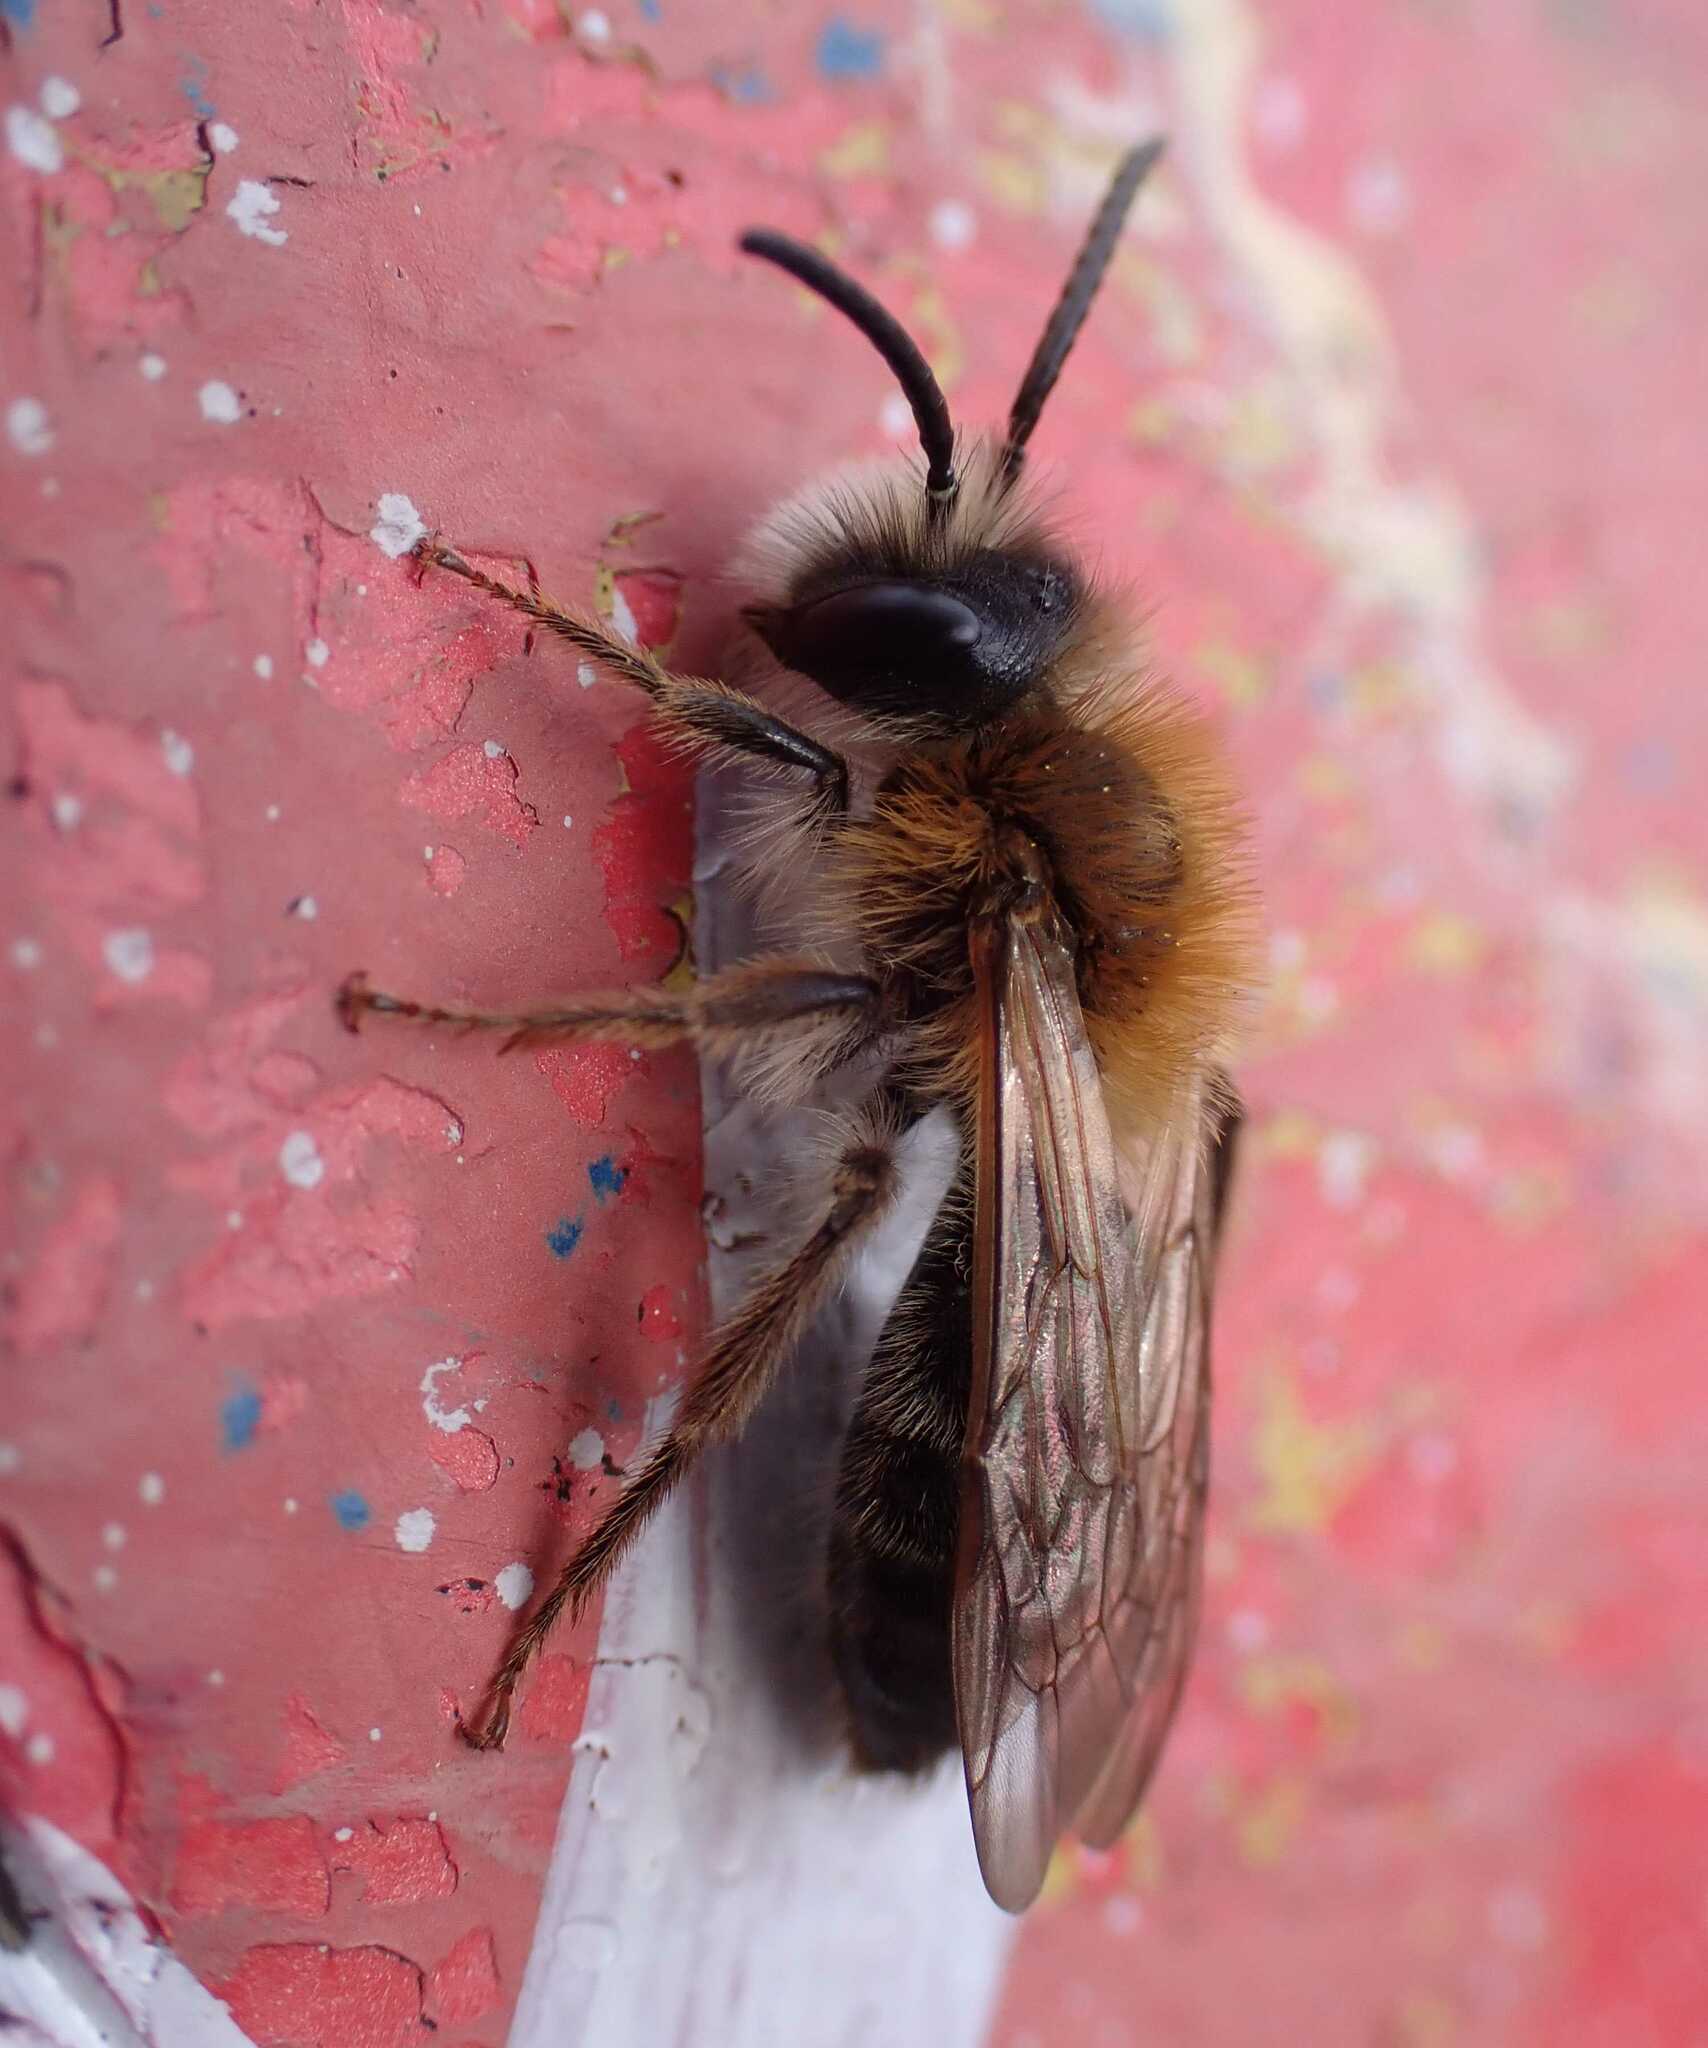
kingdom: Animalia
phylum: Arthropoda
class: Insecta
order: Hymenoptera
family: Andrenidae
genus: Andrena
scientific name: Andrena nitida
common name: Grey-patched mining bee
